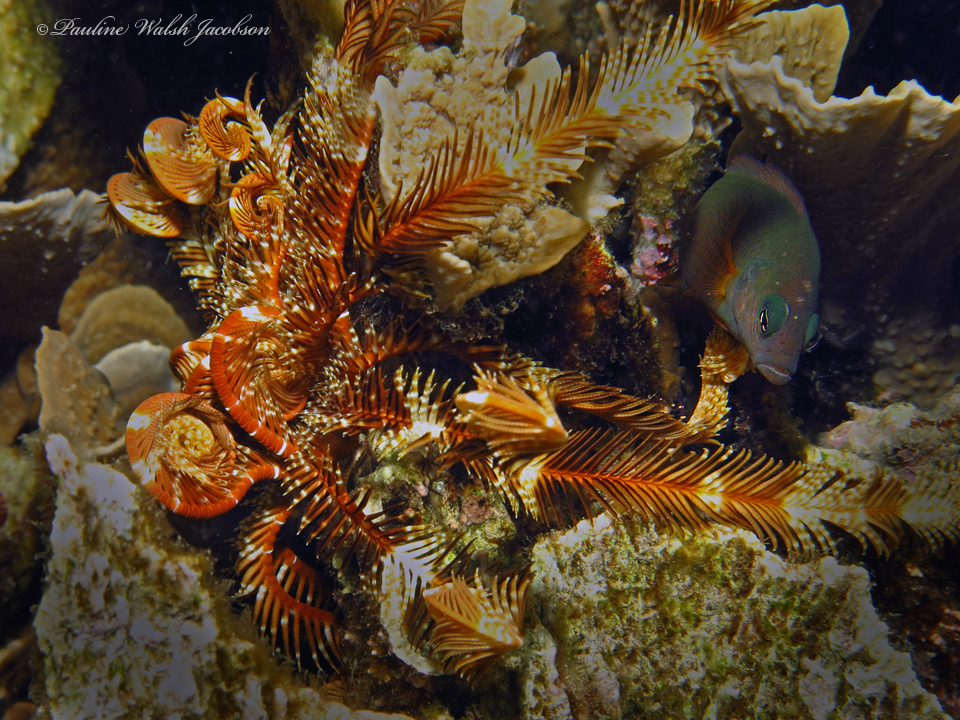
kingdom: Animalia
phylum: Chordata
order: Perciformes
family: Pseudochromidae
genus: Pseudochromis
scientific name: Pseudochromis fuscus
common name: Brown dottyback
